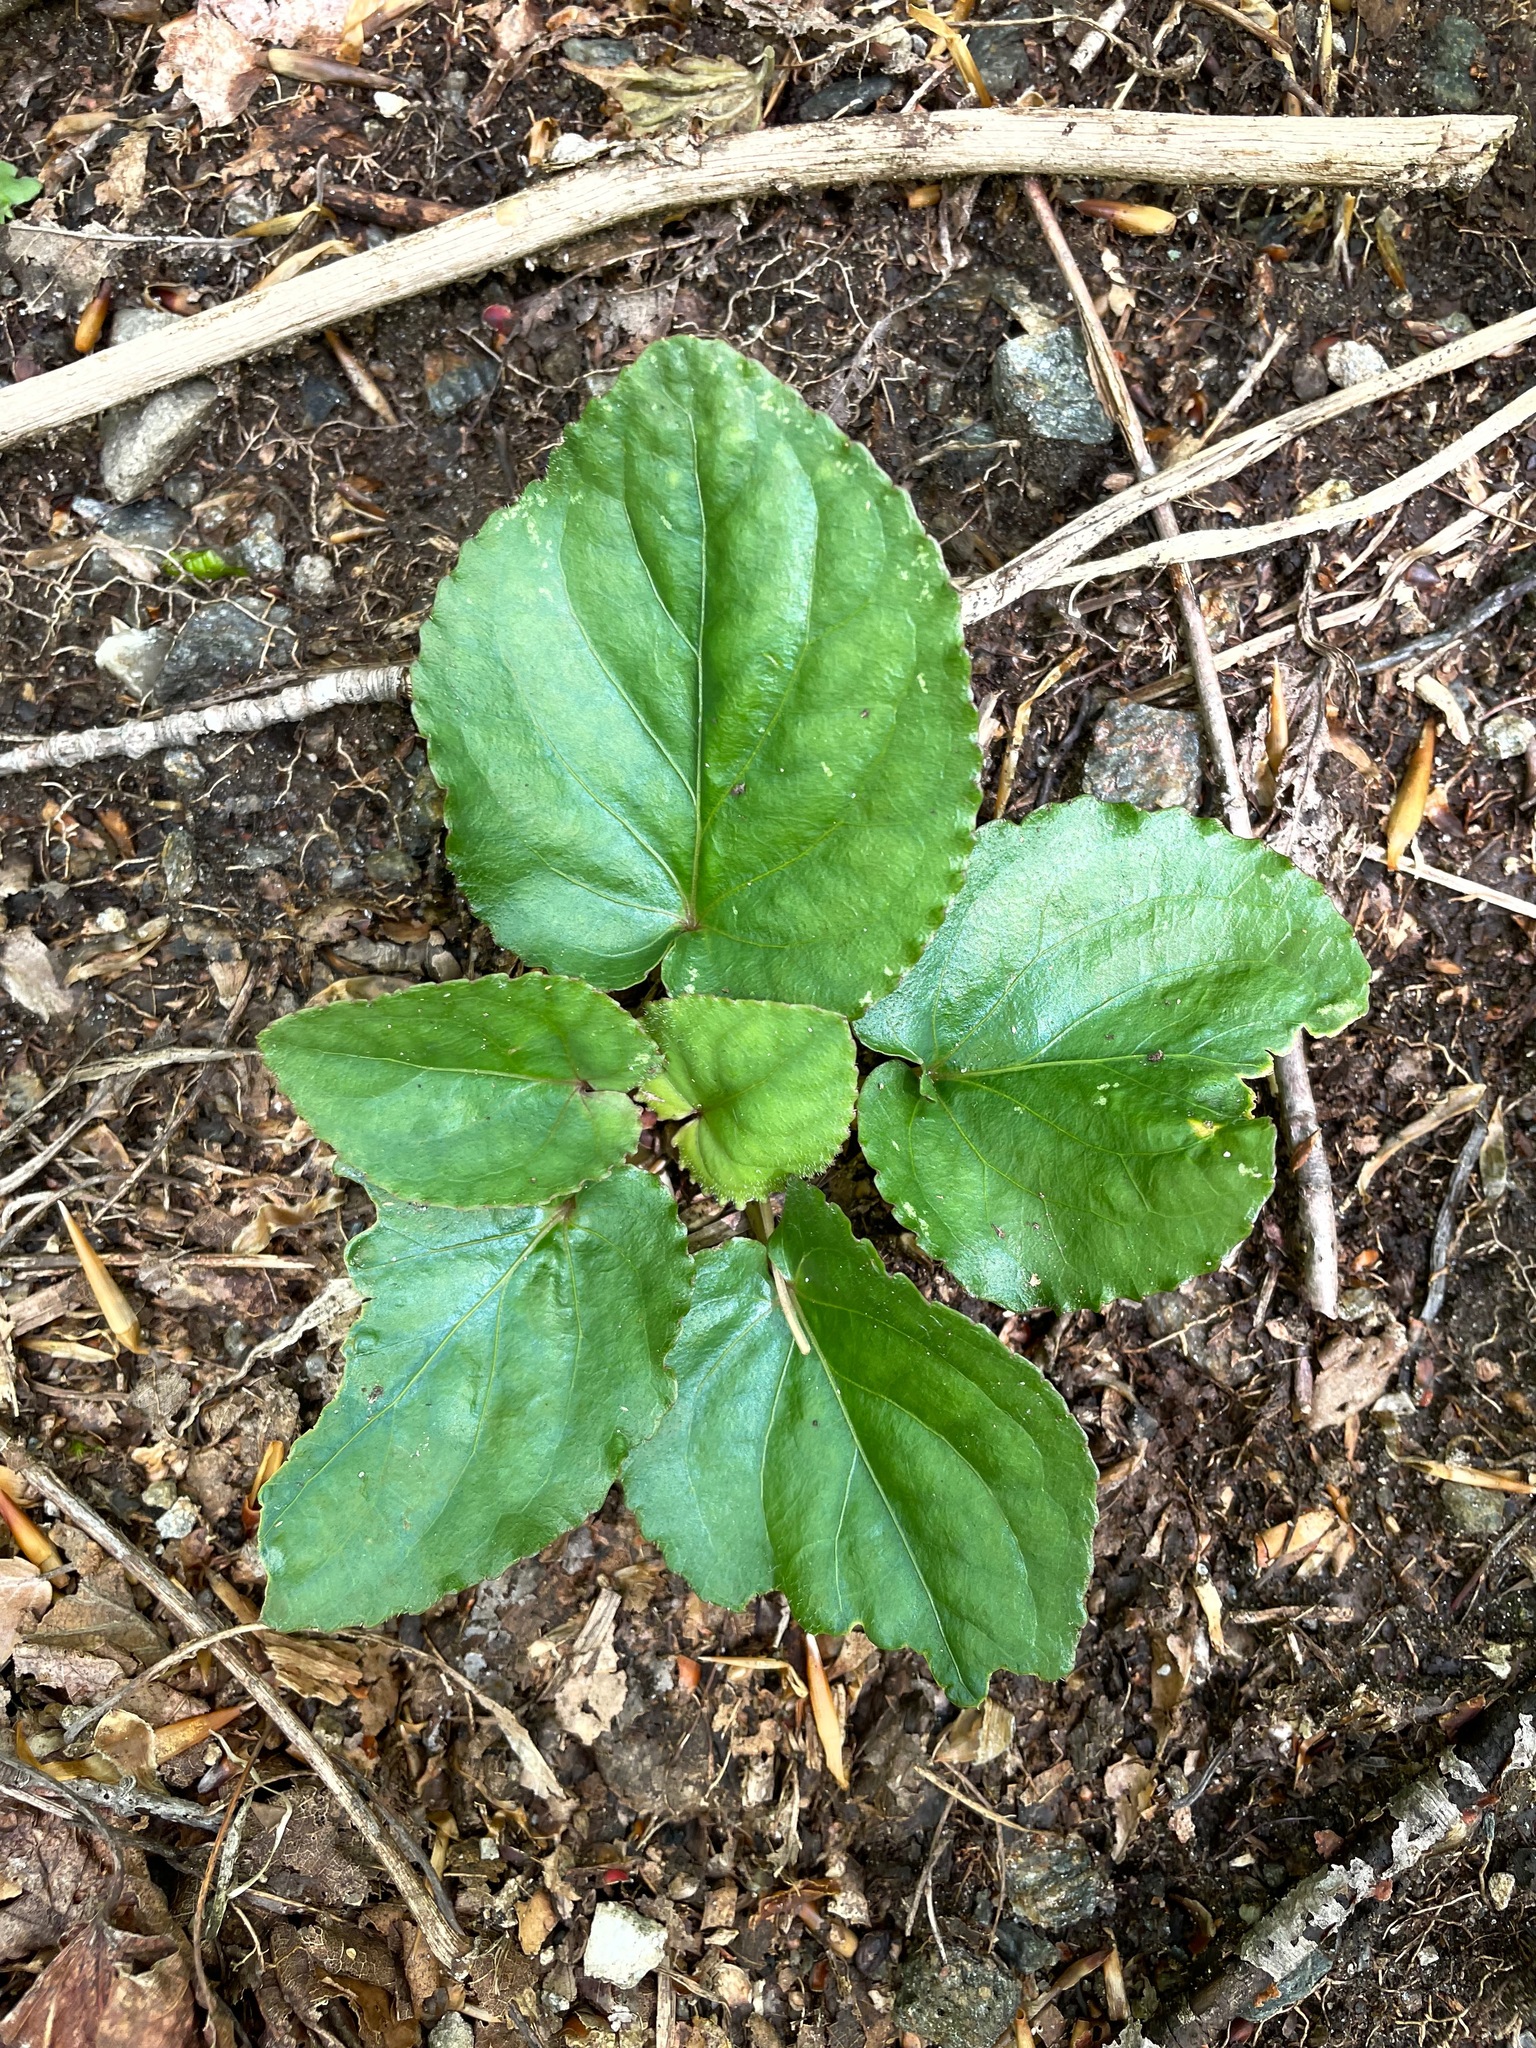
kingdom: Plantae
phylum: Tracheophyta
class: Magnoliopsida
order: Malpighiales
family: Violaceae
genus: Viola
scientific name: Viola rotundifolia
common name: Early yellow violet
